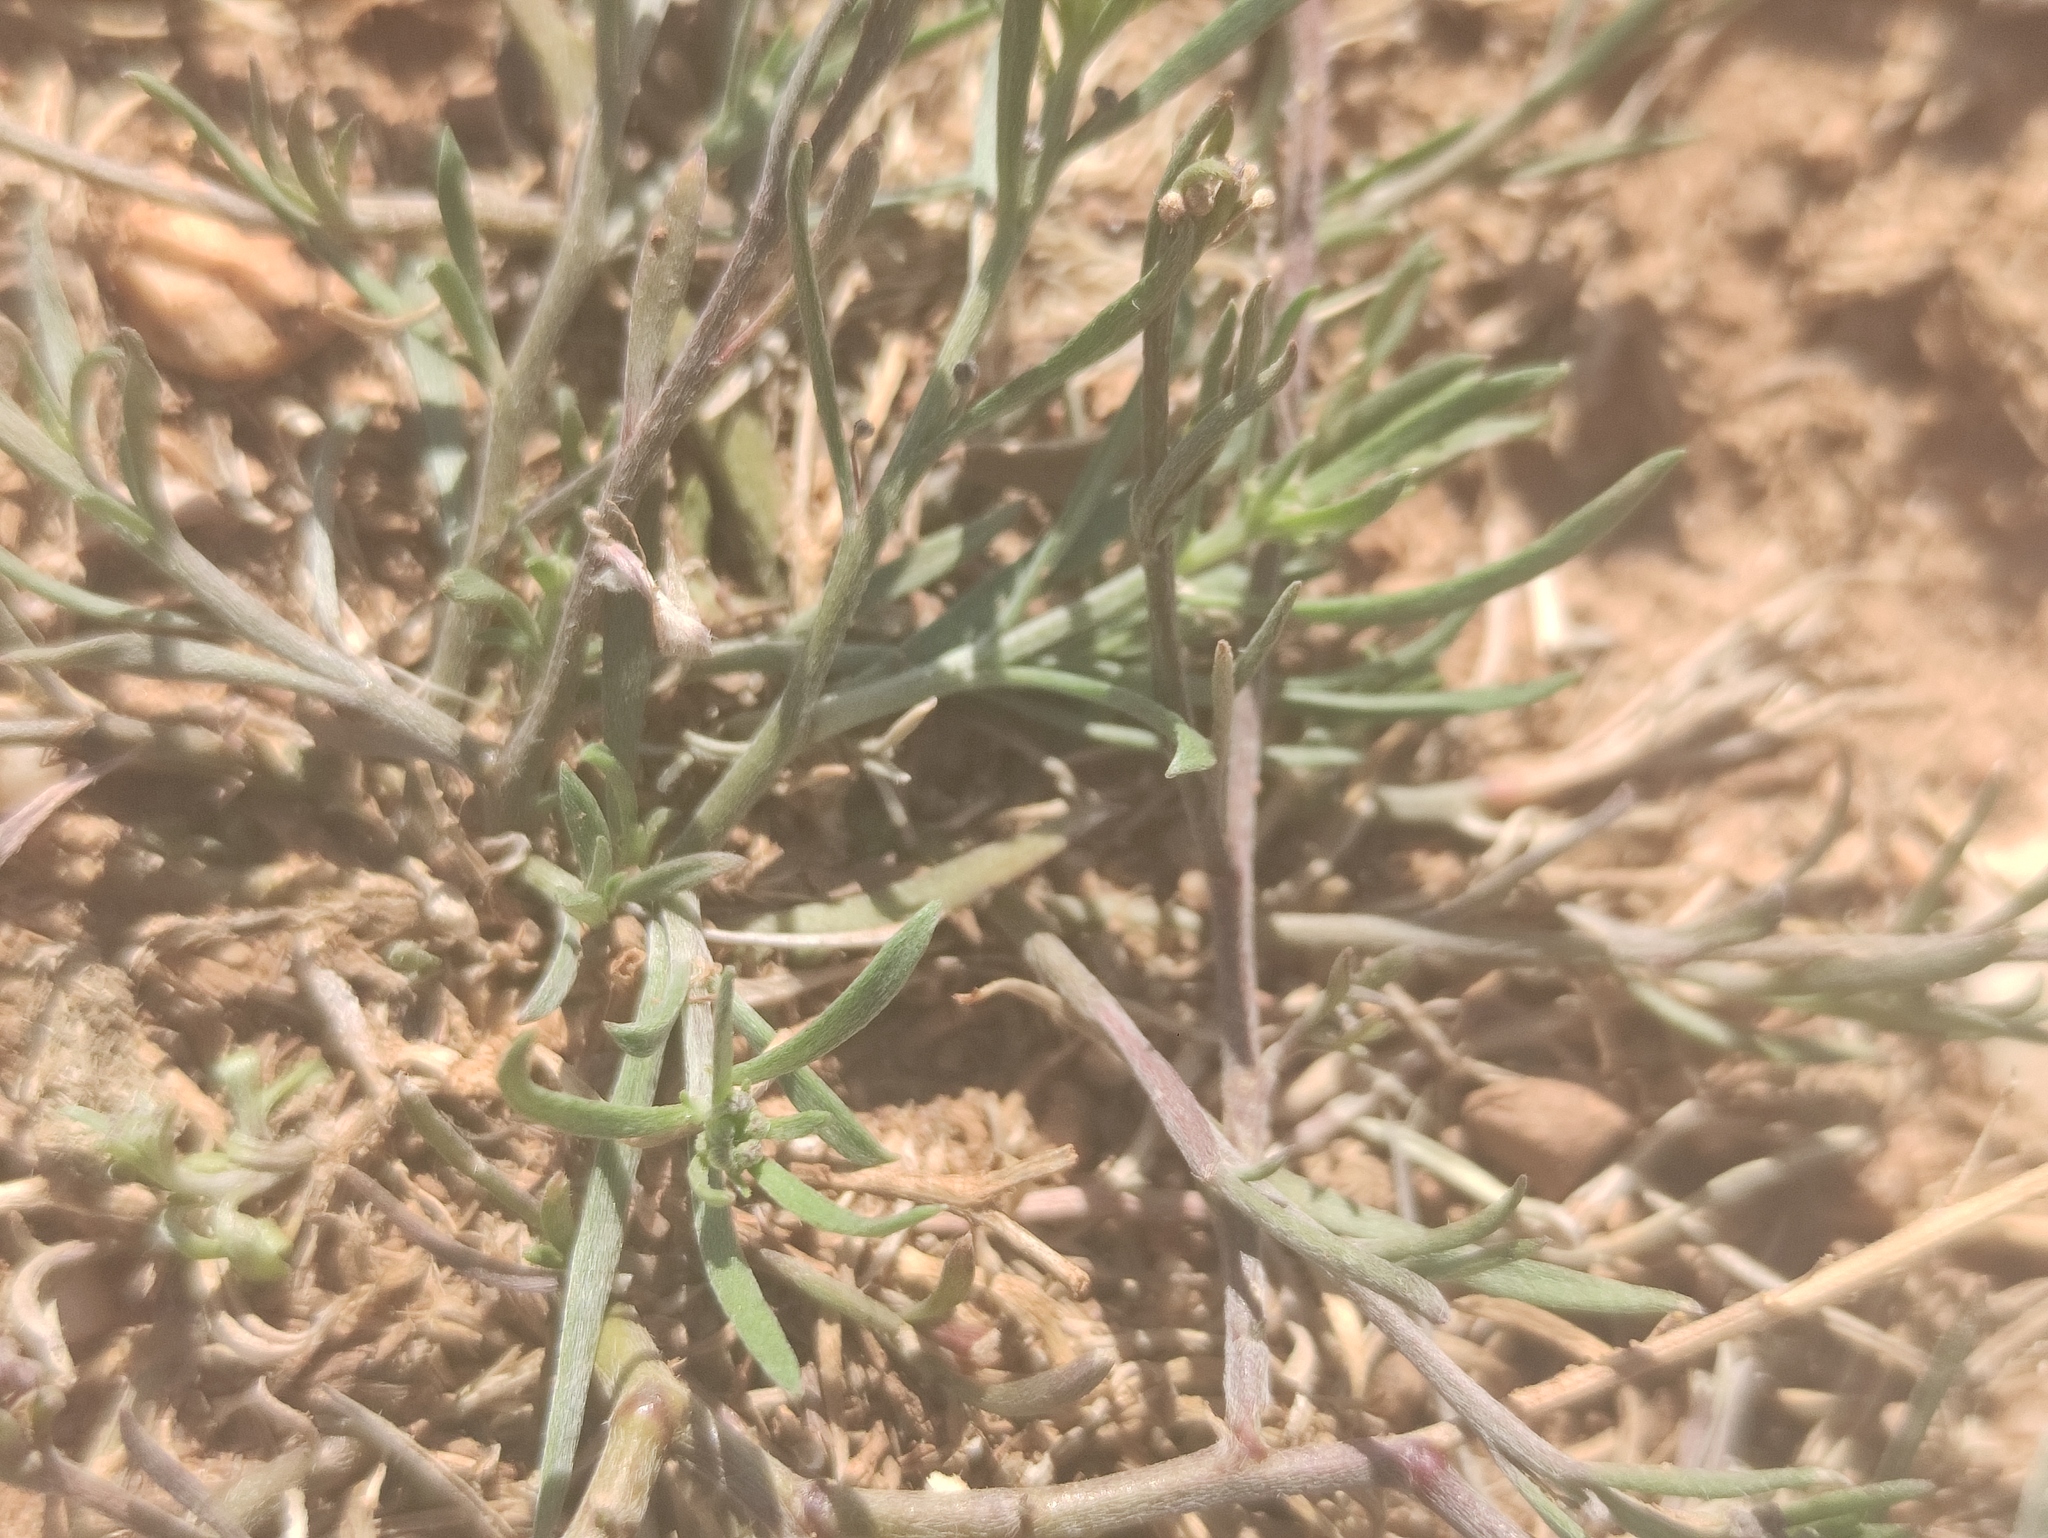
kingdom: Plantae
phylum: Tracheophyta
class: Magnoliopsida
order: Brassicales
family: Brassicaceae
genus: Lobularia
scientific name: Lobularia maritima
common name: Sweet alison
